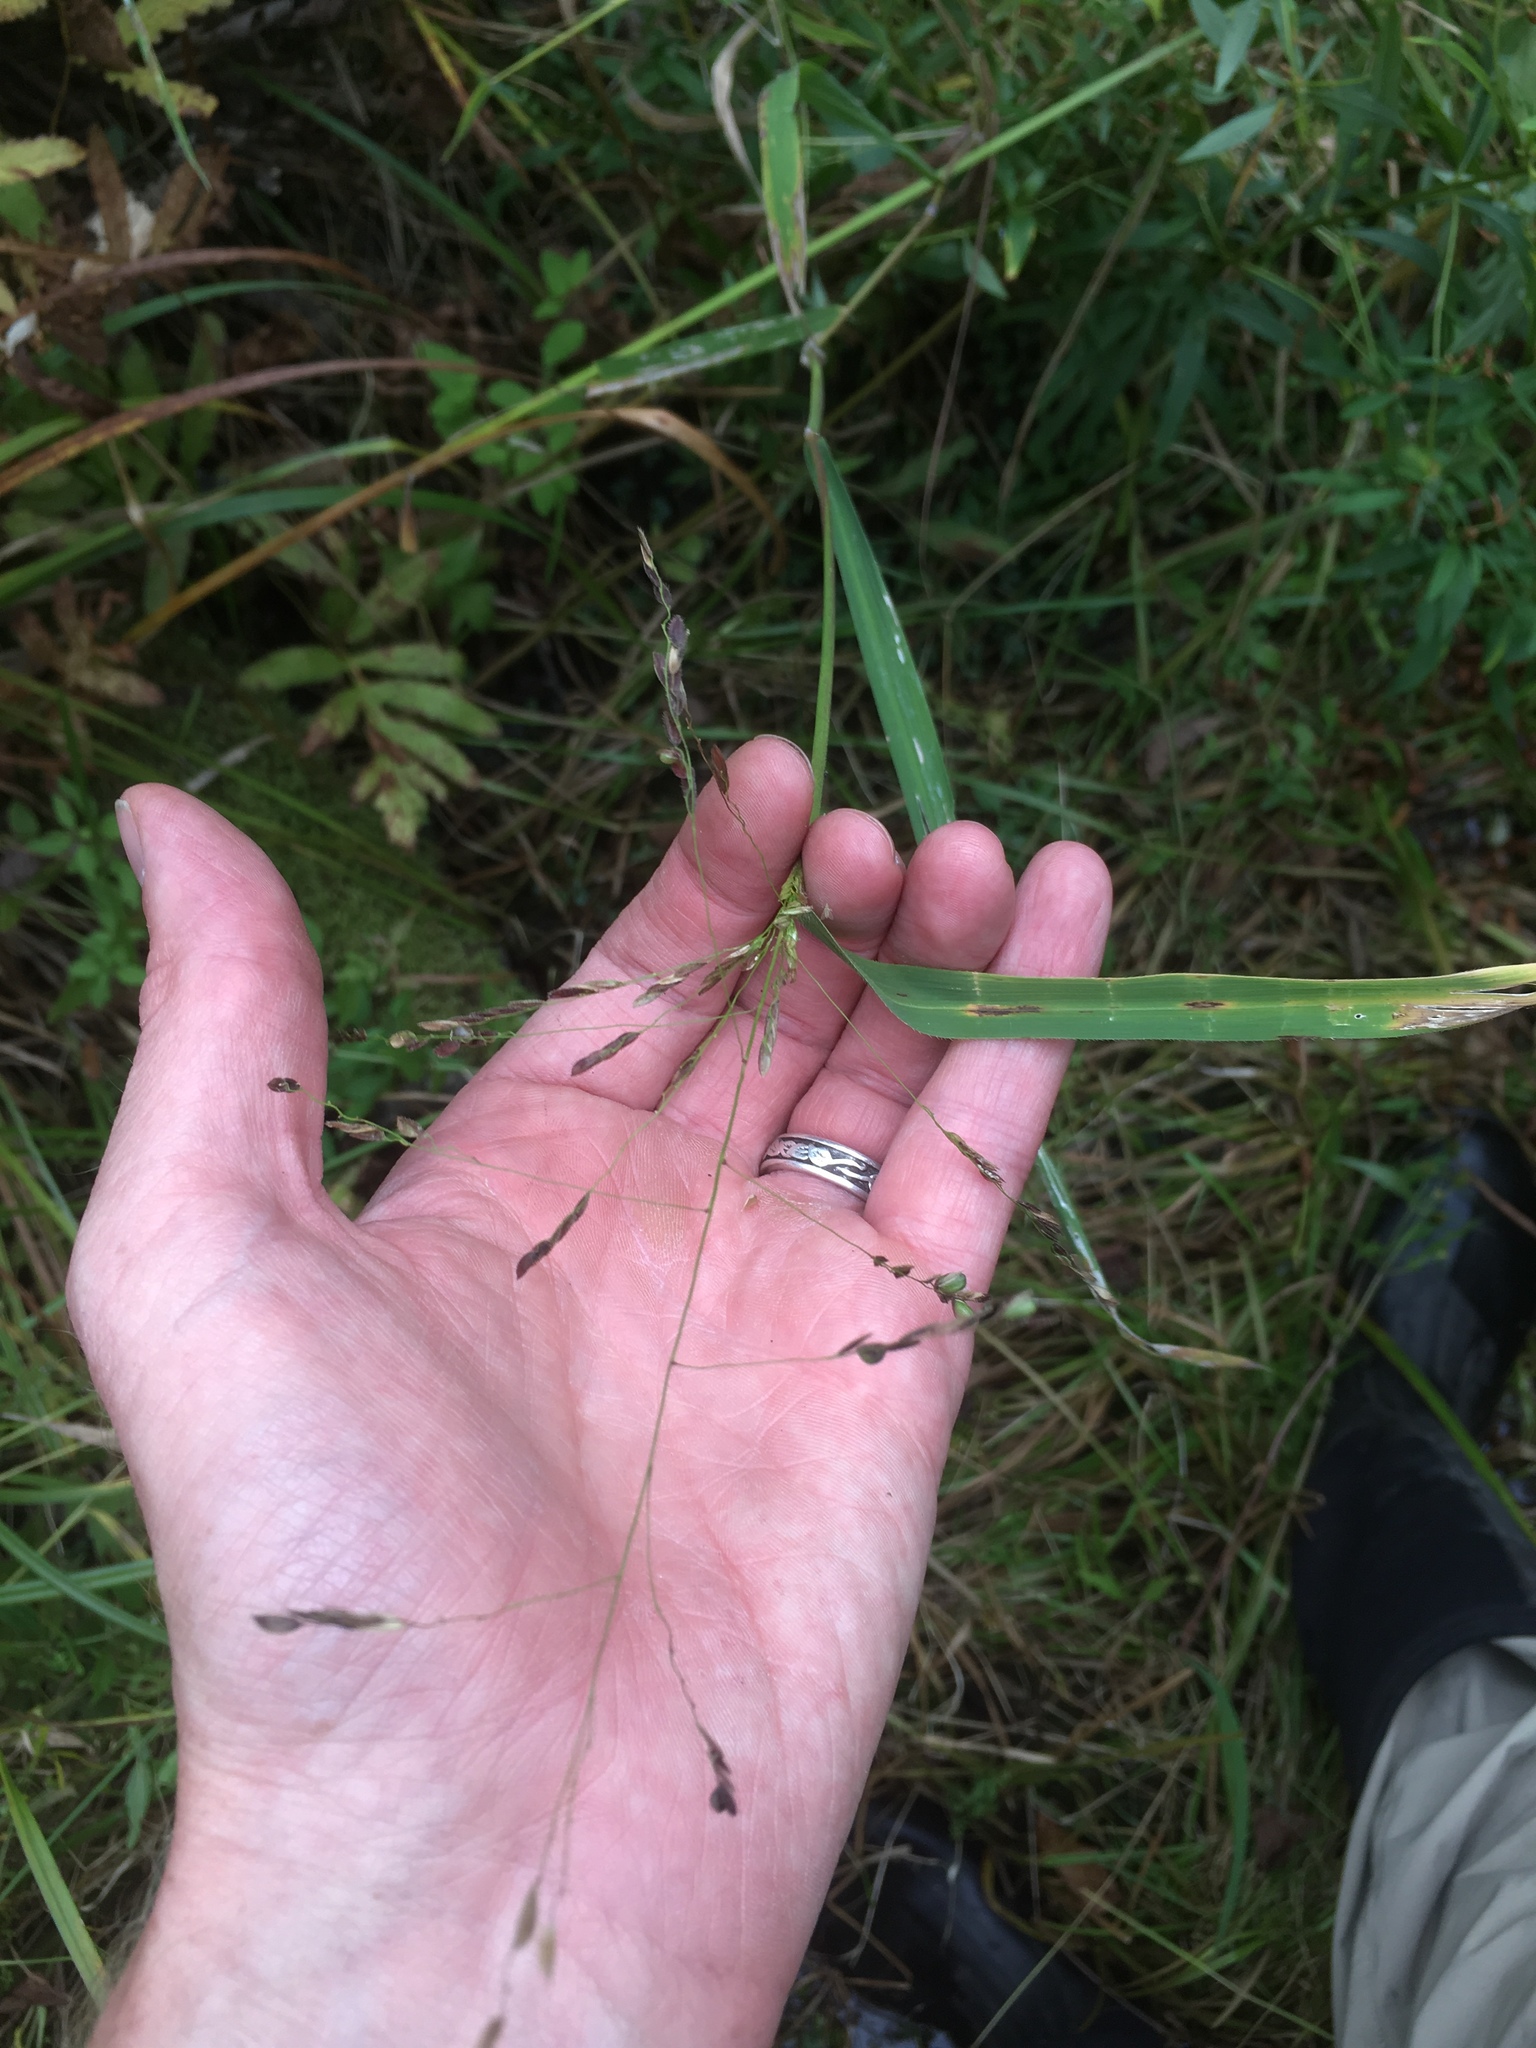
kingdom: Plantae
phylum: Tracheophyta
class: Liliopsida
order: Poales
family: Poaceae
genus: Leersia
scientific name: Leersia oryzoides
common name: Cut-grass
